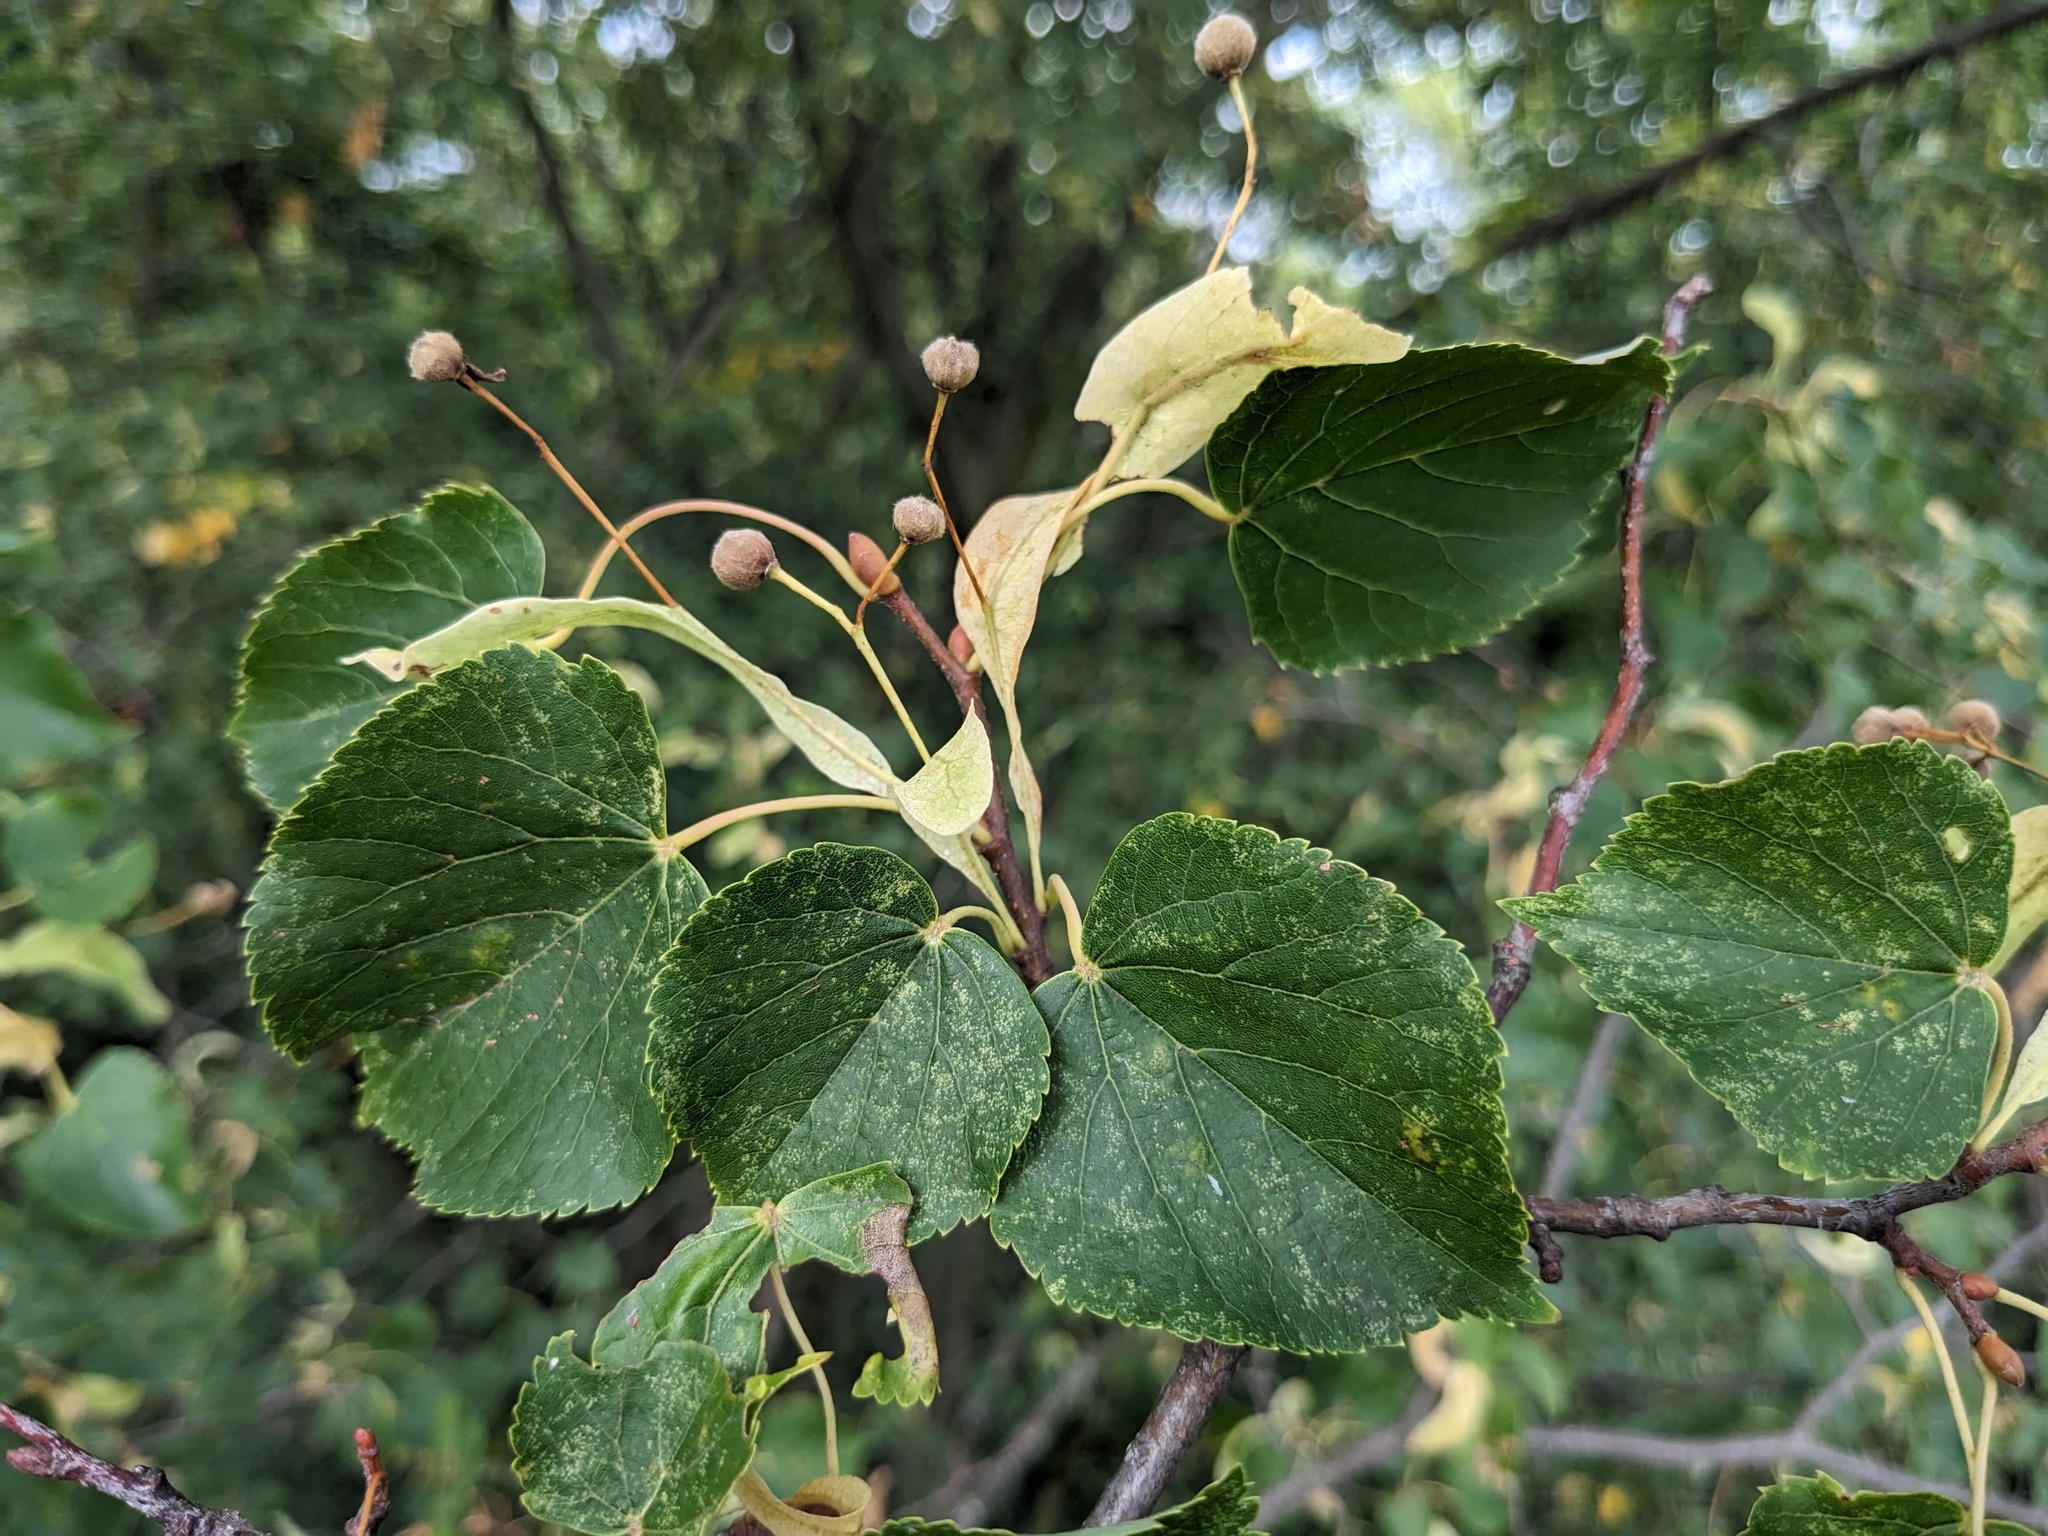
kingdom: Plantae
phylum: Tracheophyta
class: Magnoliopsida
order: Malvales
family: Malvaceae
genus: Tilia
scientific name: Tilia cordata
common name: Small-leaved lime
